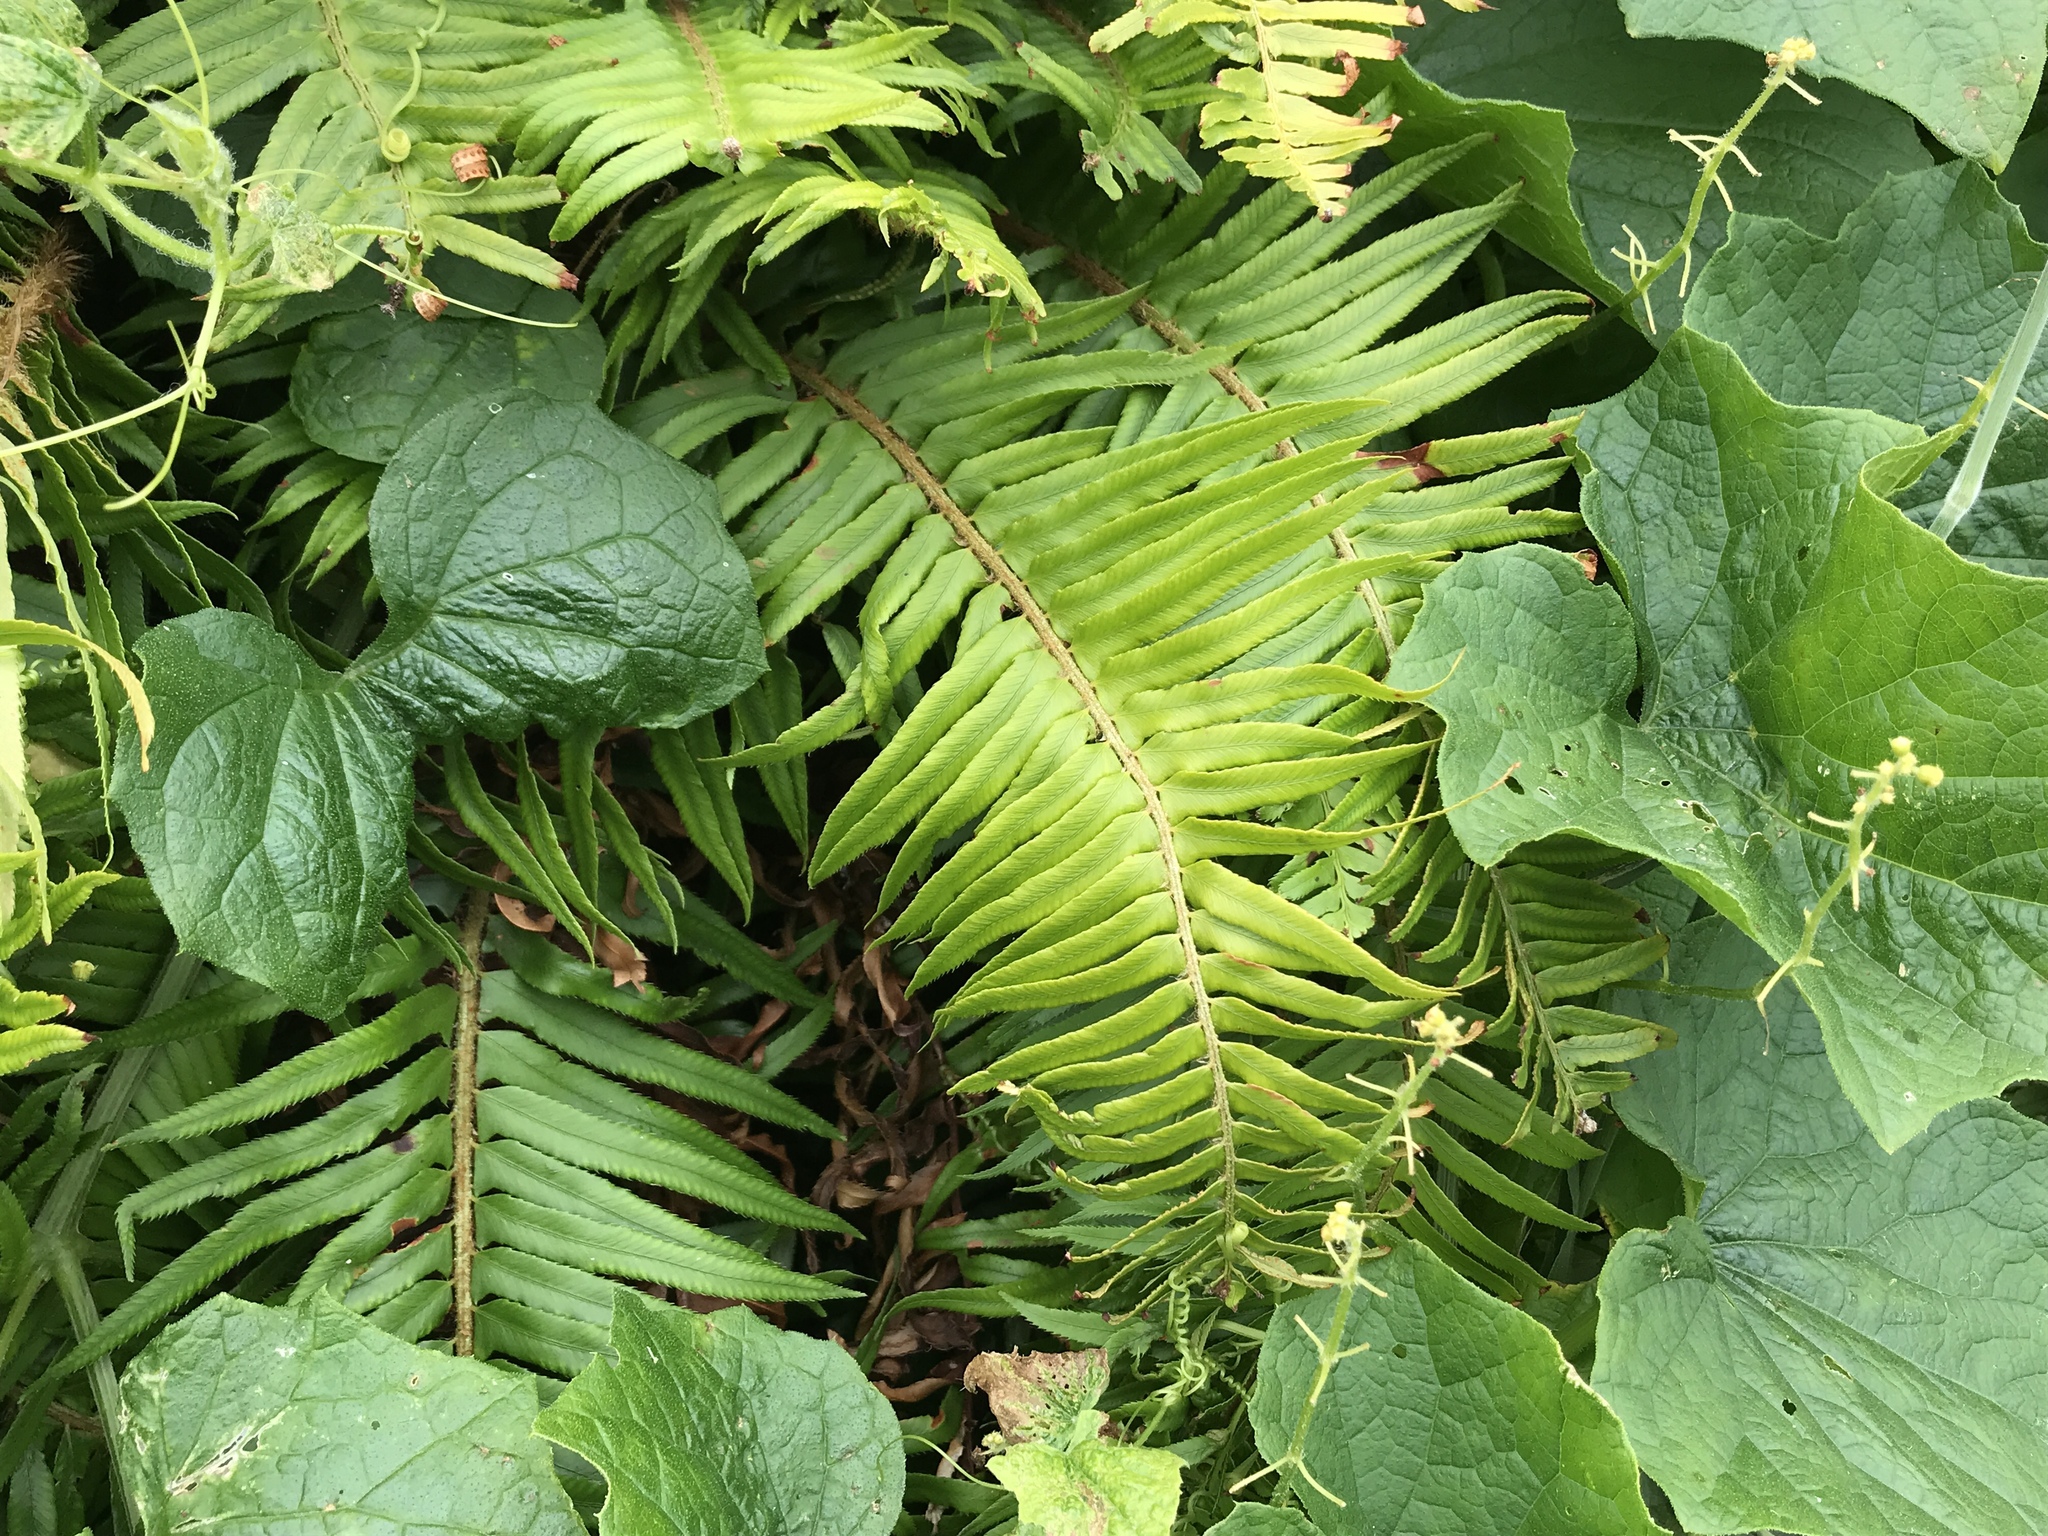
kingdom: Plantae
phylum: Tracheophyta
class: Polypodiopsida
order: Polypodiales
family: Dryopteridaceae
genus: Polystichum
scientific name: Polystichum munitum
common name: Western sword-fern
